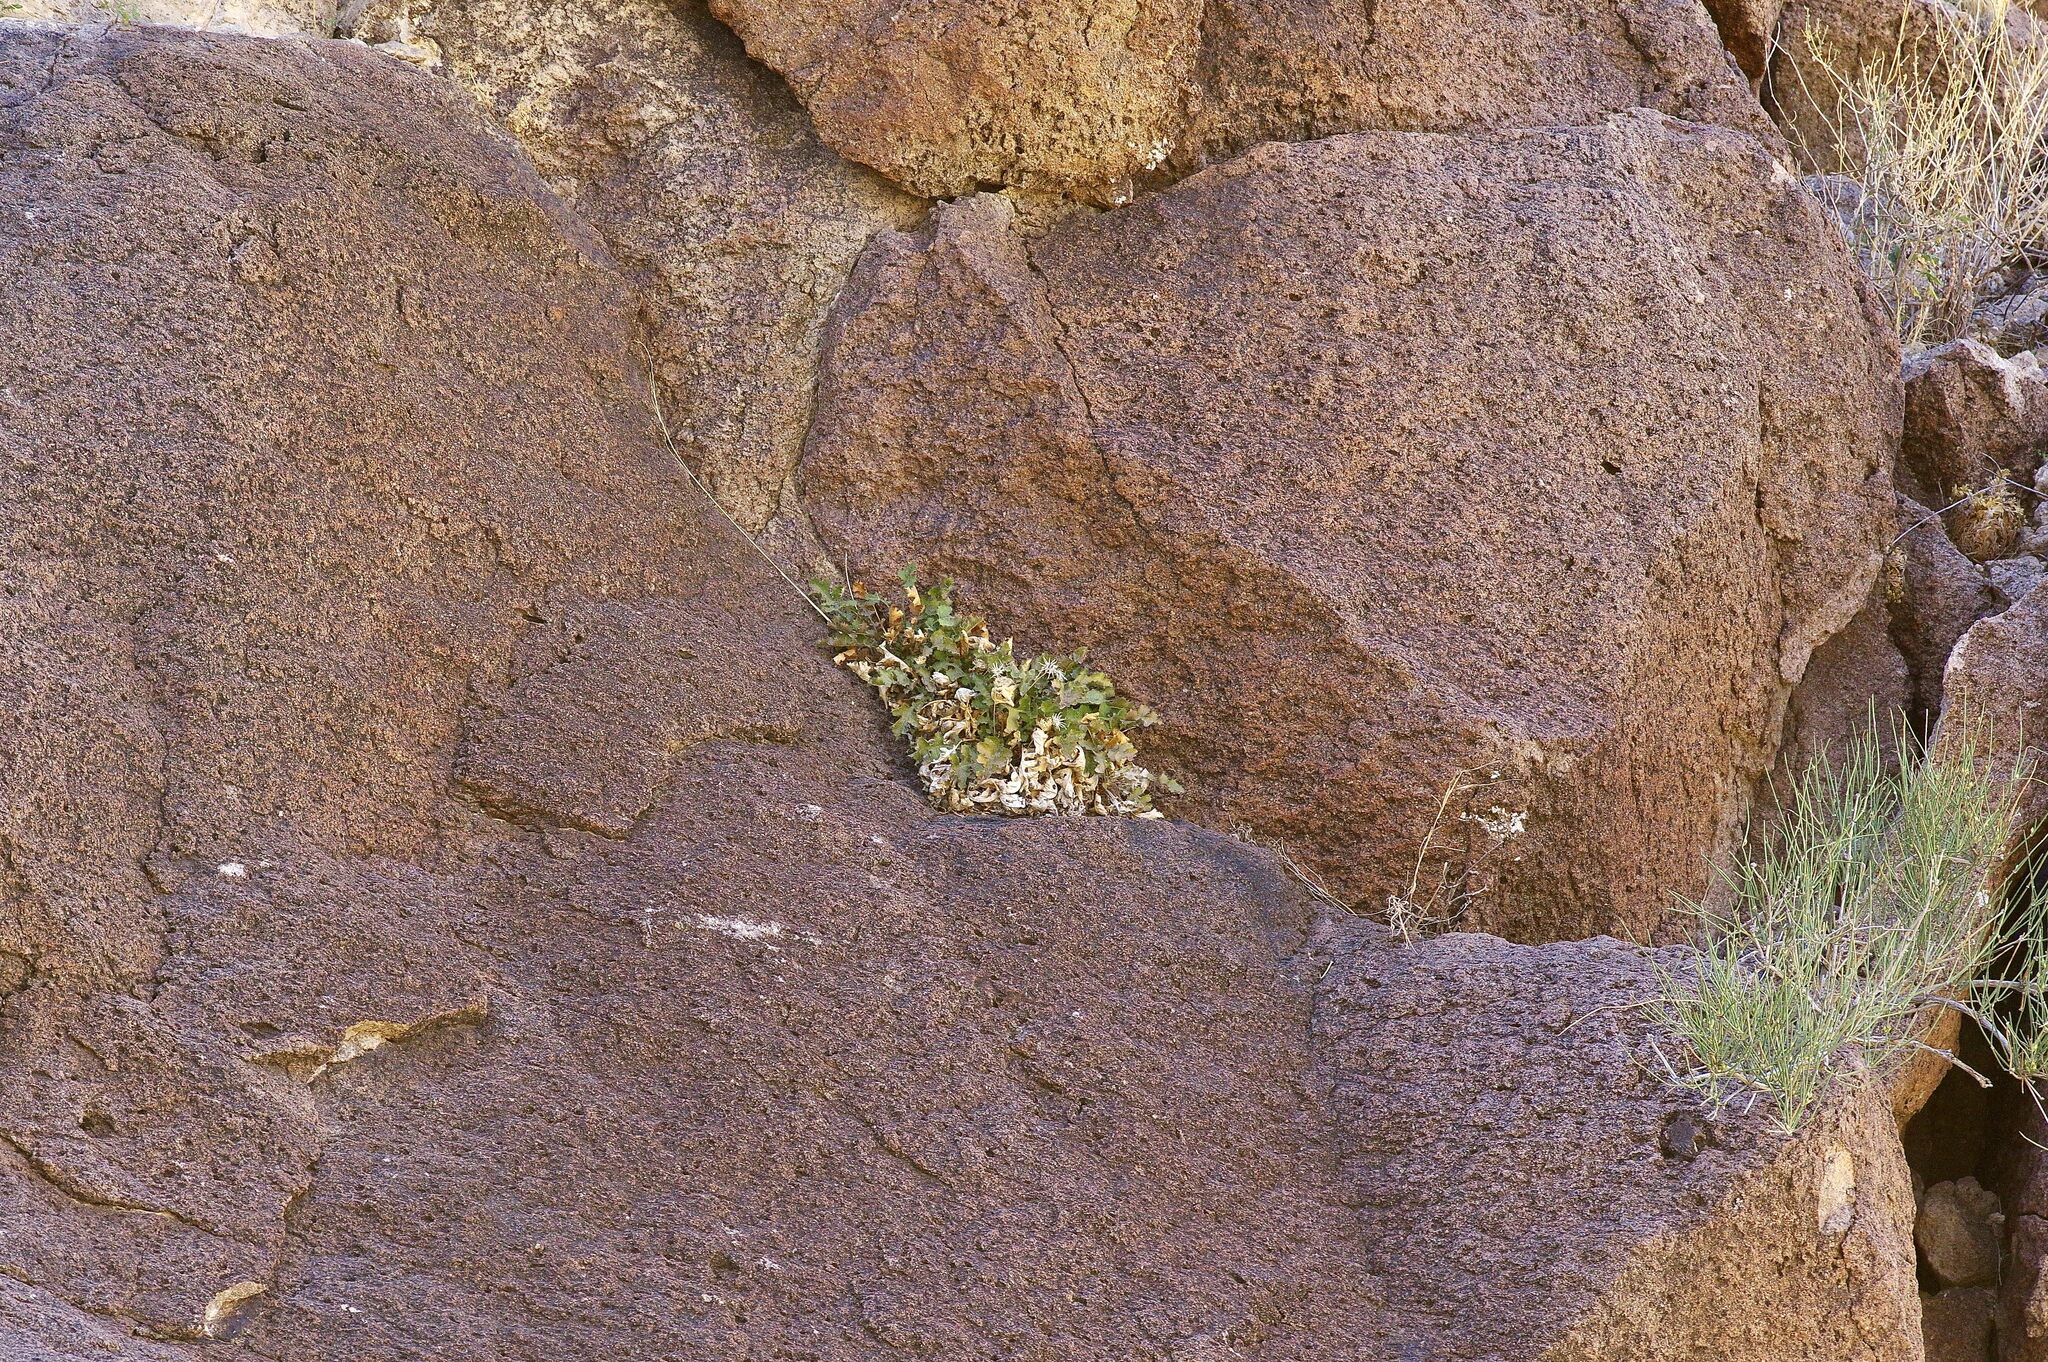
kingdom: Plantae
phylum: Tracheophyta
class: Magnoliopsida
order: Asterales
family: Asteraceae
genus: Acourtia
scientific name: Acourtia runcinata
